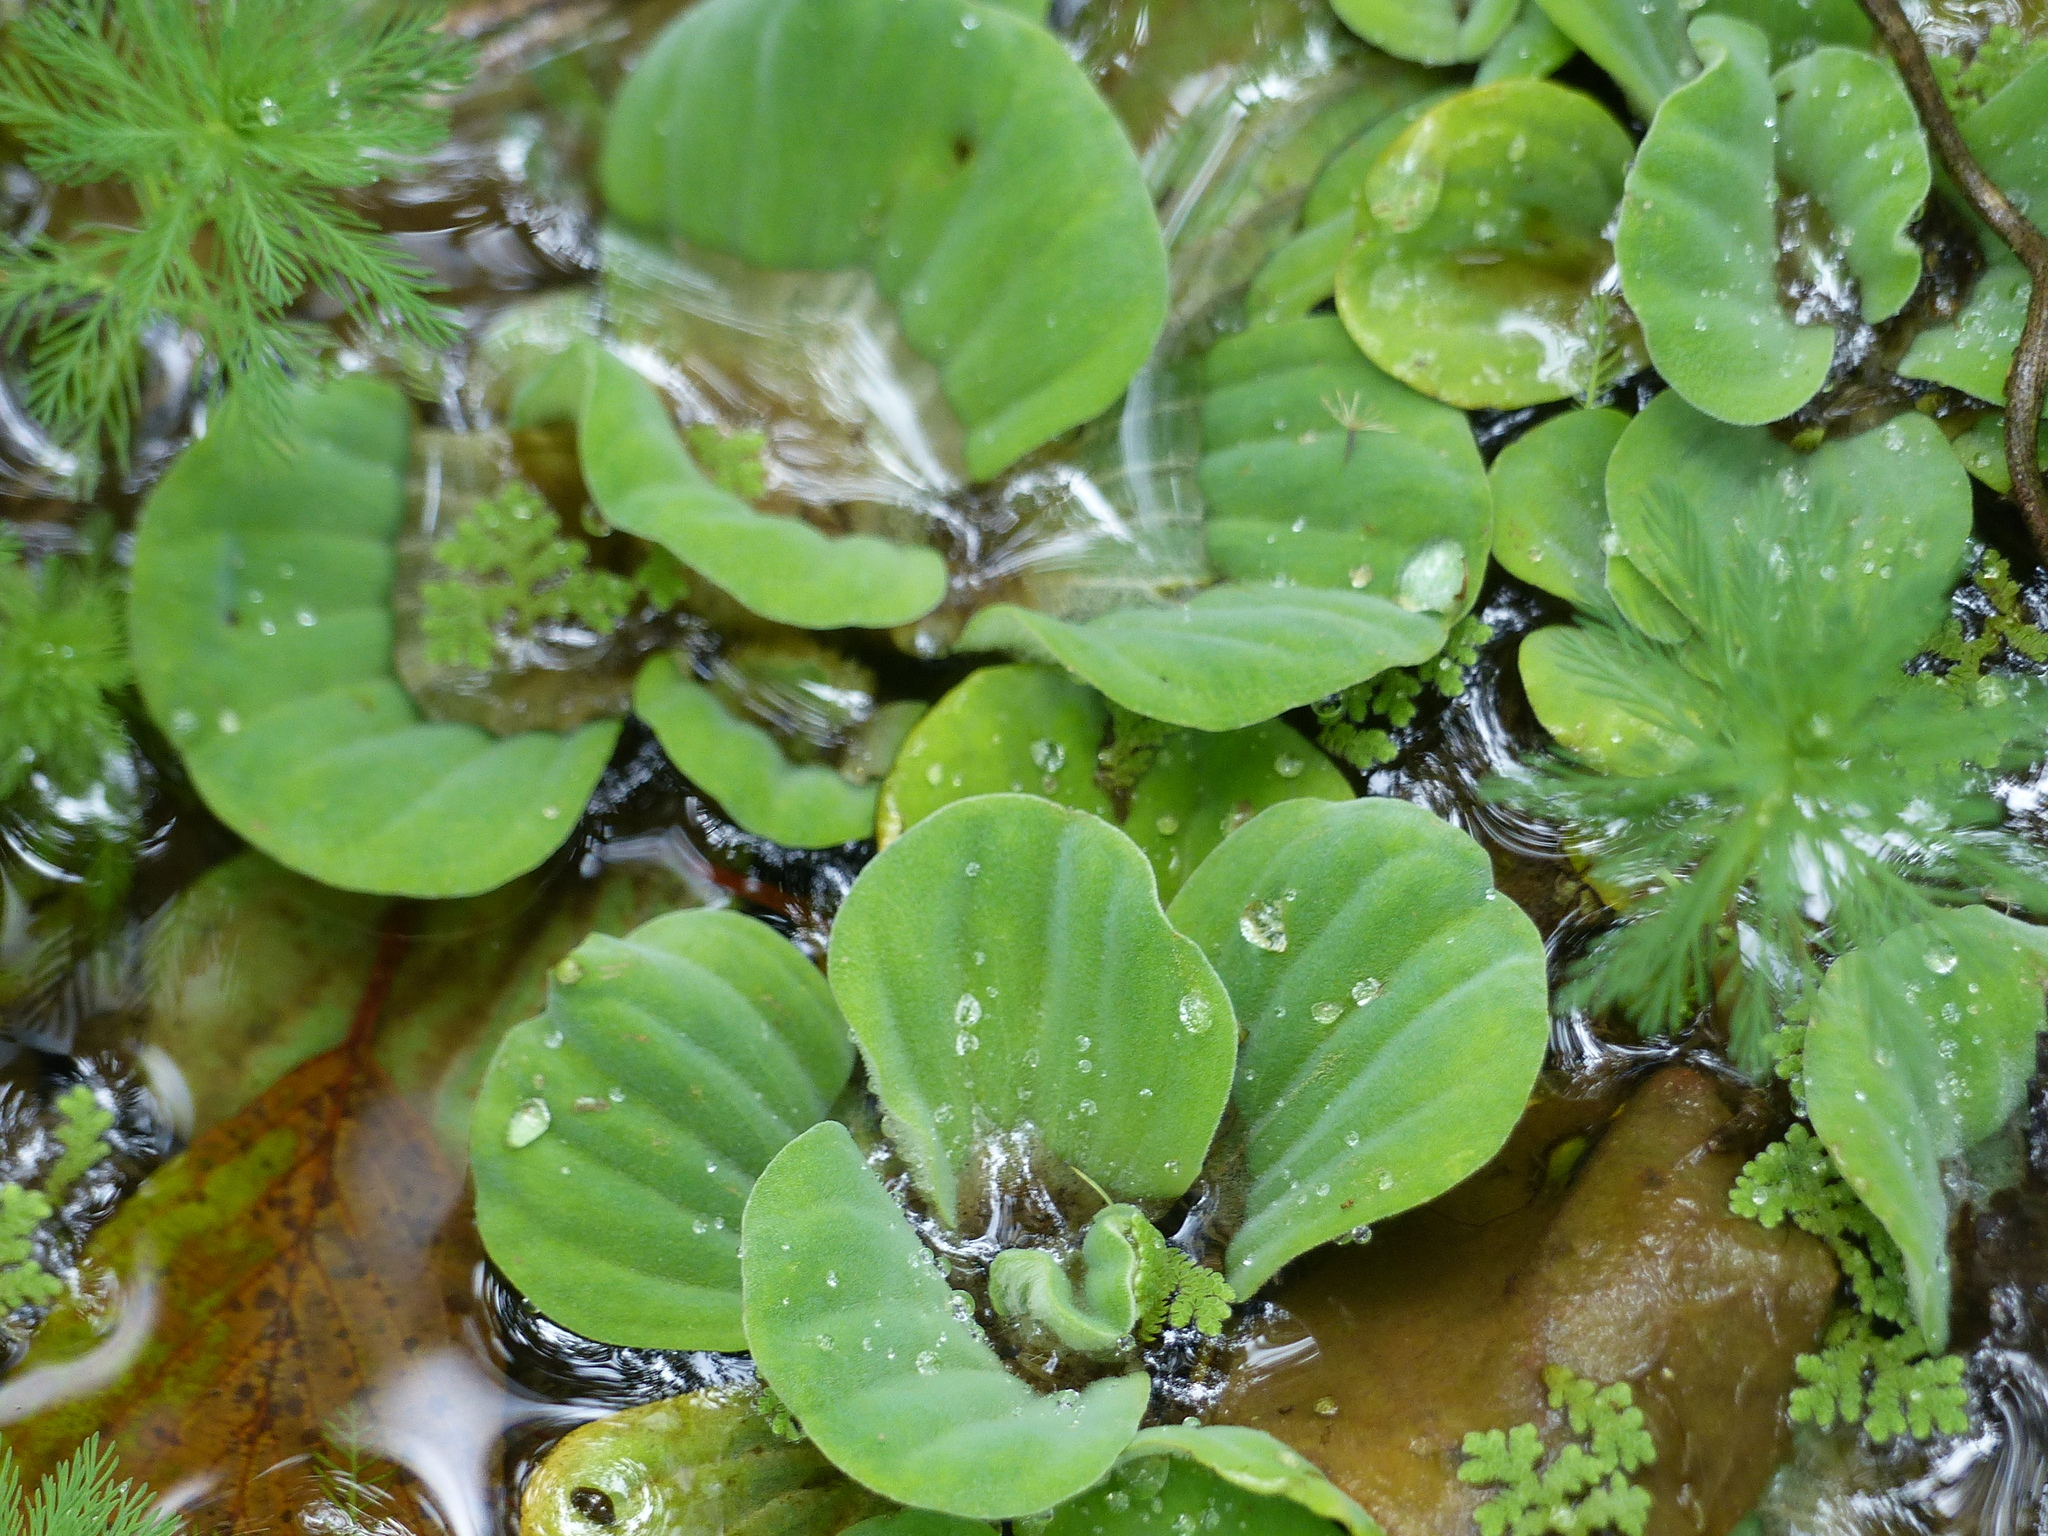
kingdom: Plantae
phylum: Tracheophyta
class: Liliopsida
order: Alismatales
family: Araceae
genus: Pistia
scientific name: Pistia stratiotes
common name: Water lettuce
